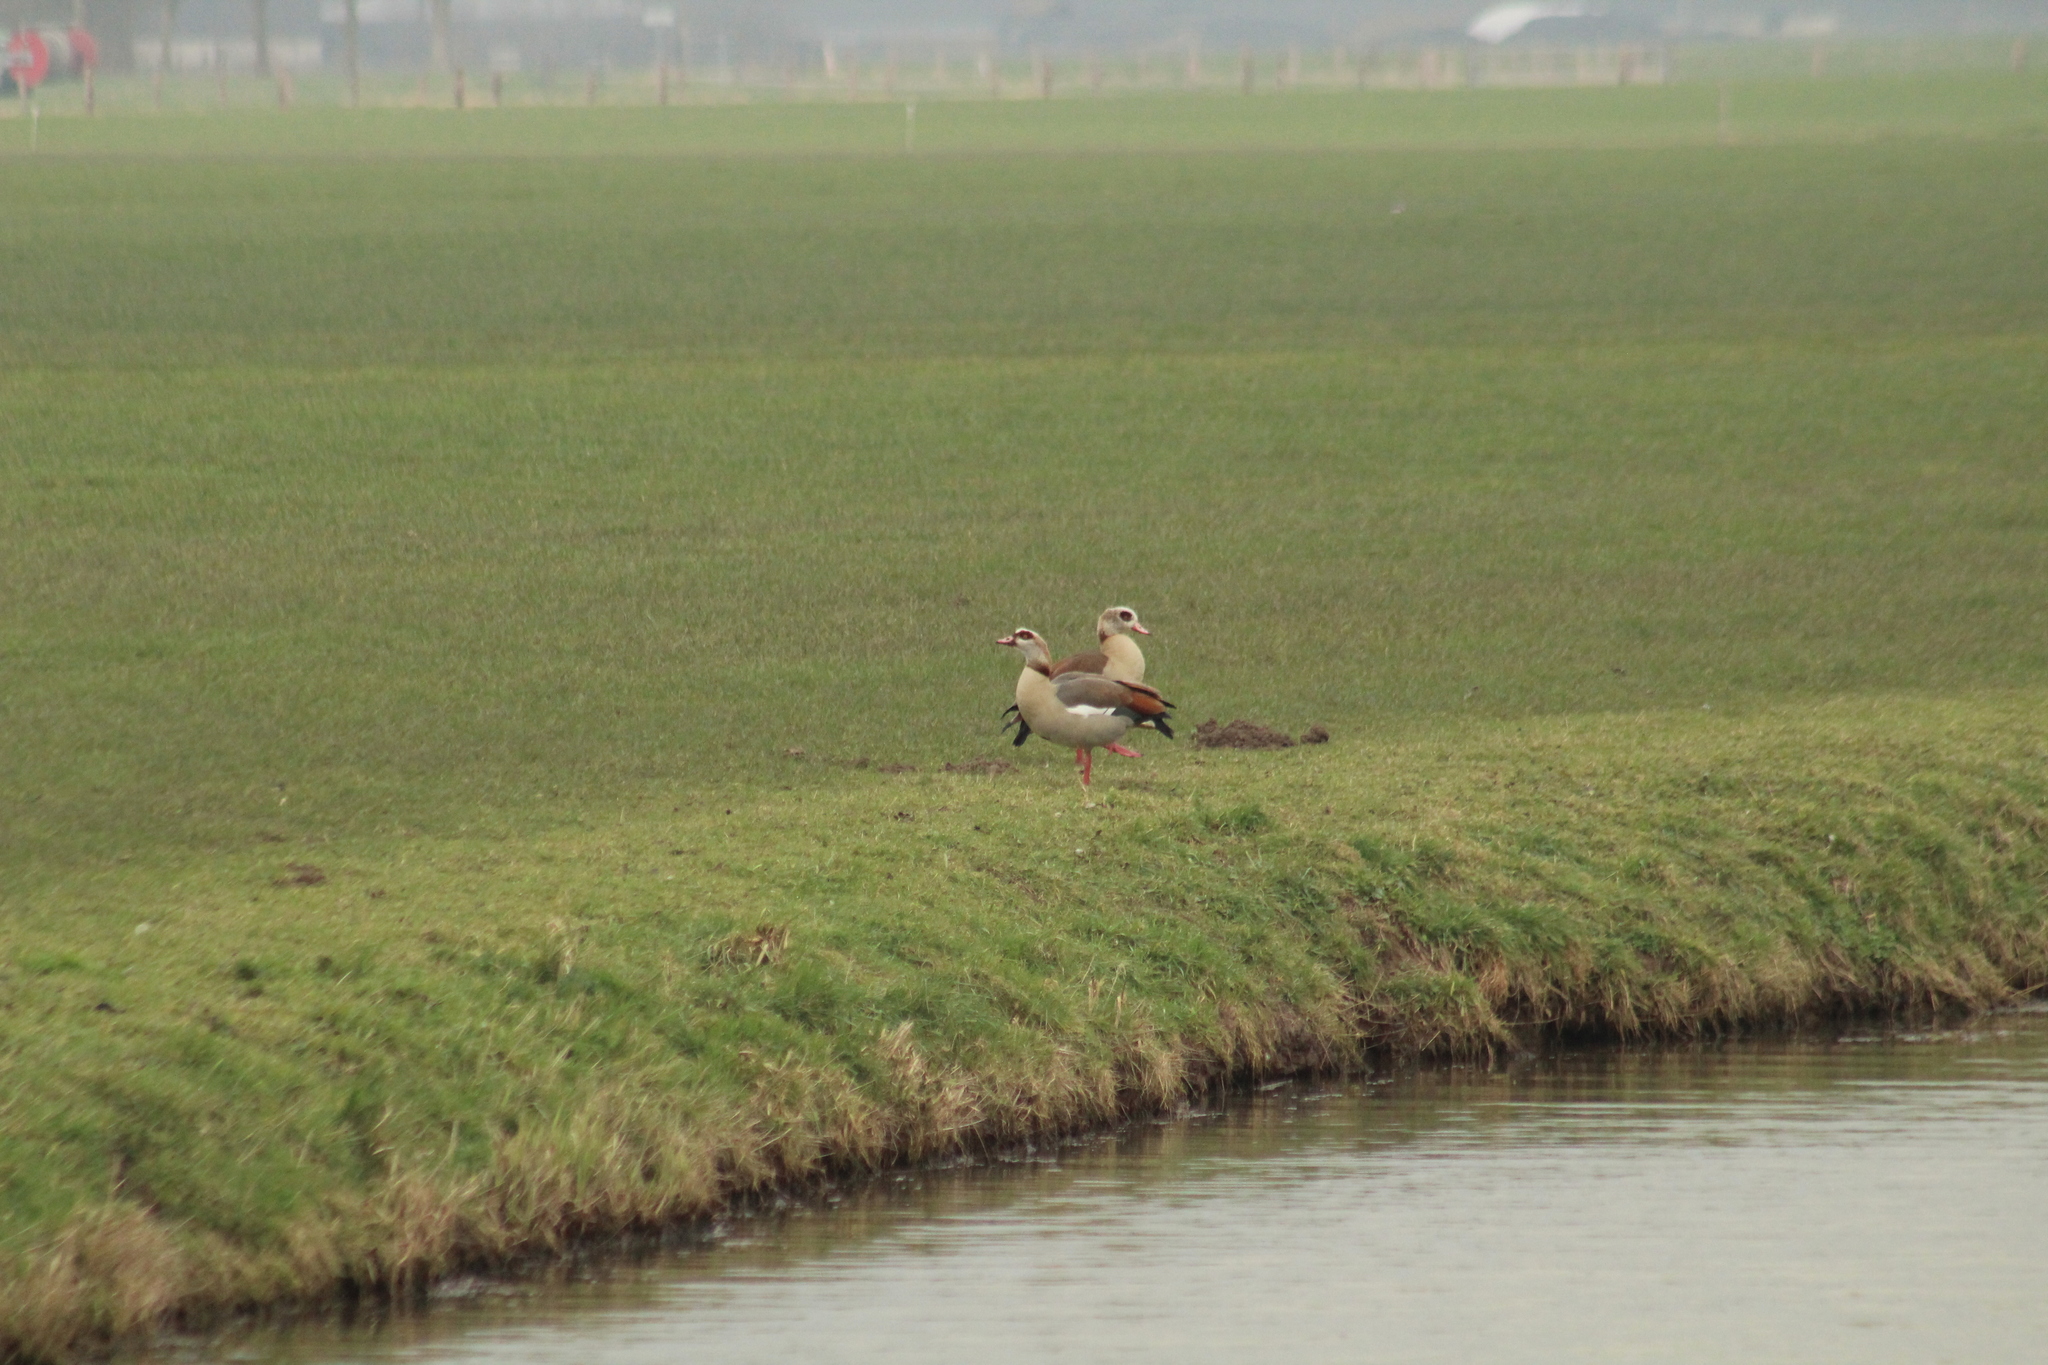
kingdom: Animalia
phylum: Chordata
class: Aves
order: Anseriformes
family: Anatidae
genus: Alopochen
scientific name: Alopochen aegyptiaca
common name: Egyptian goose
